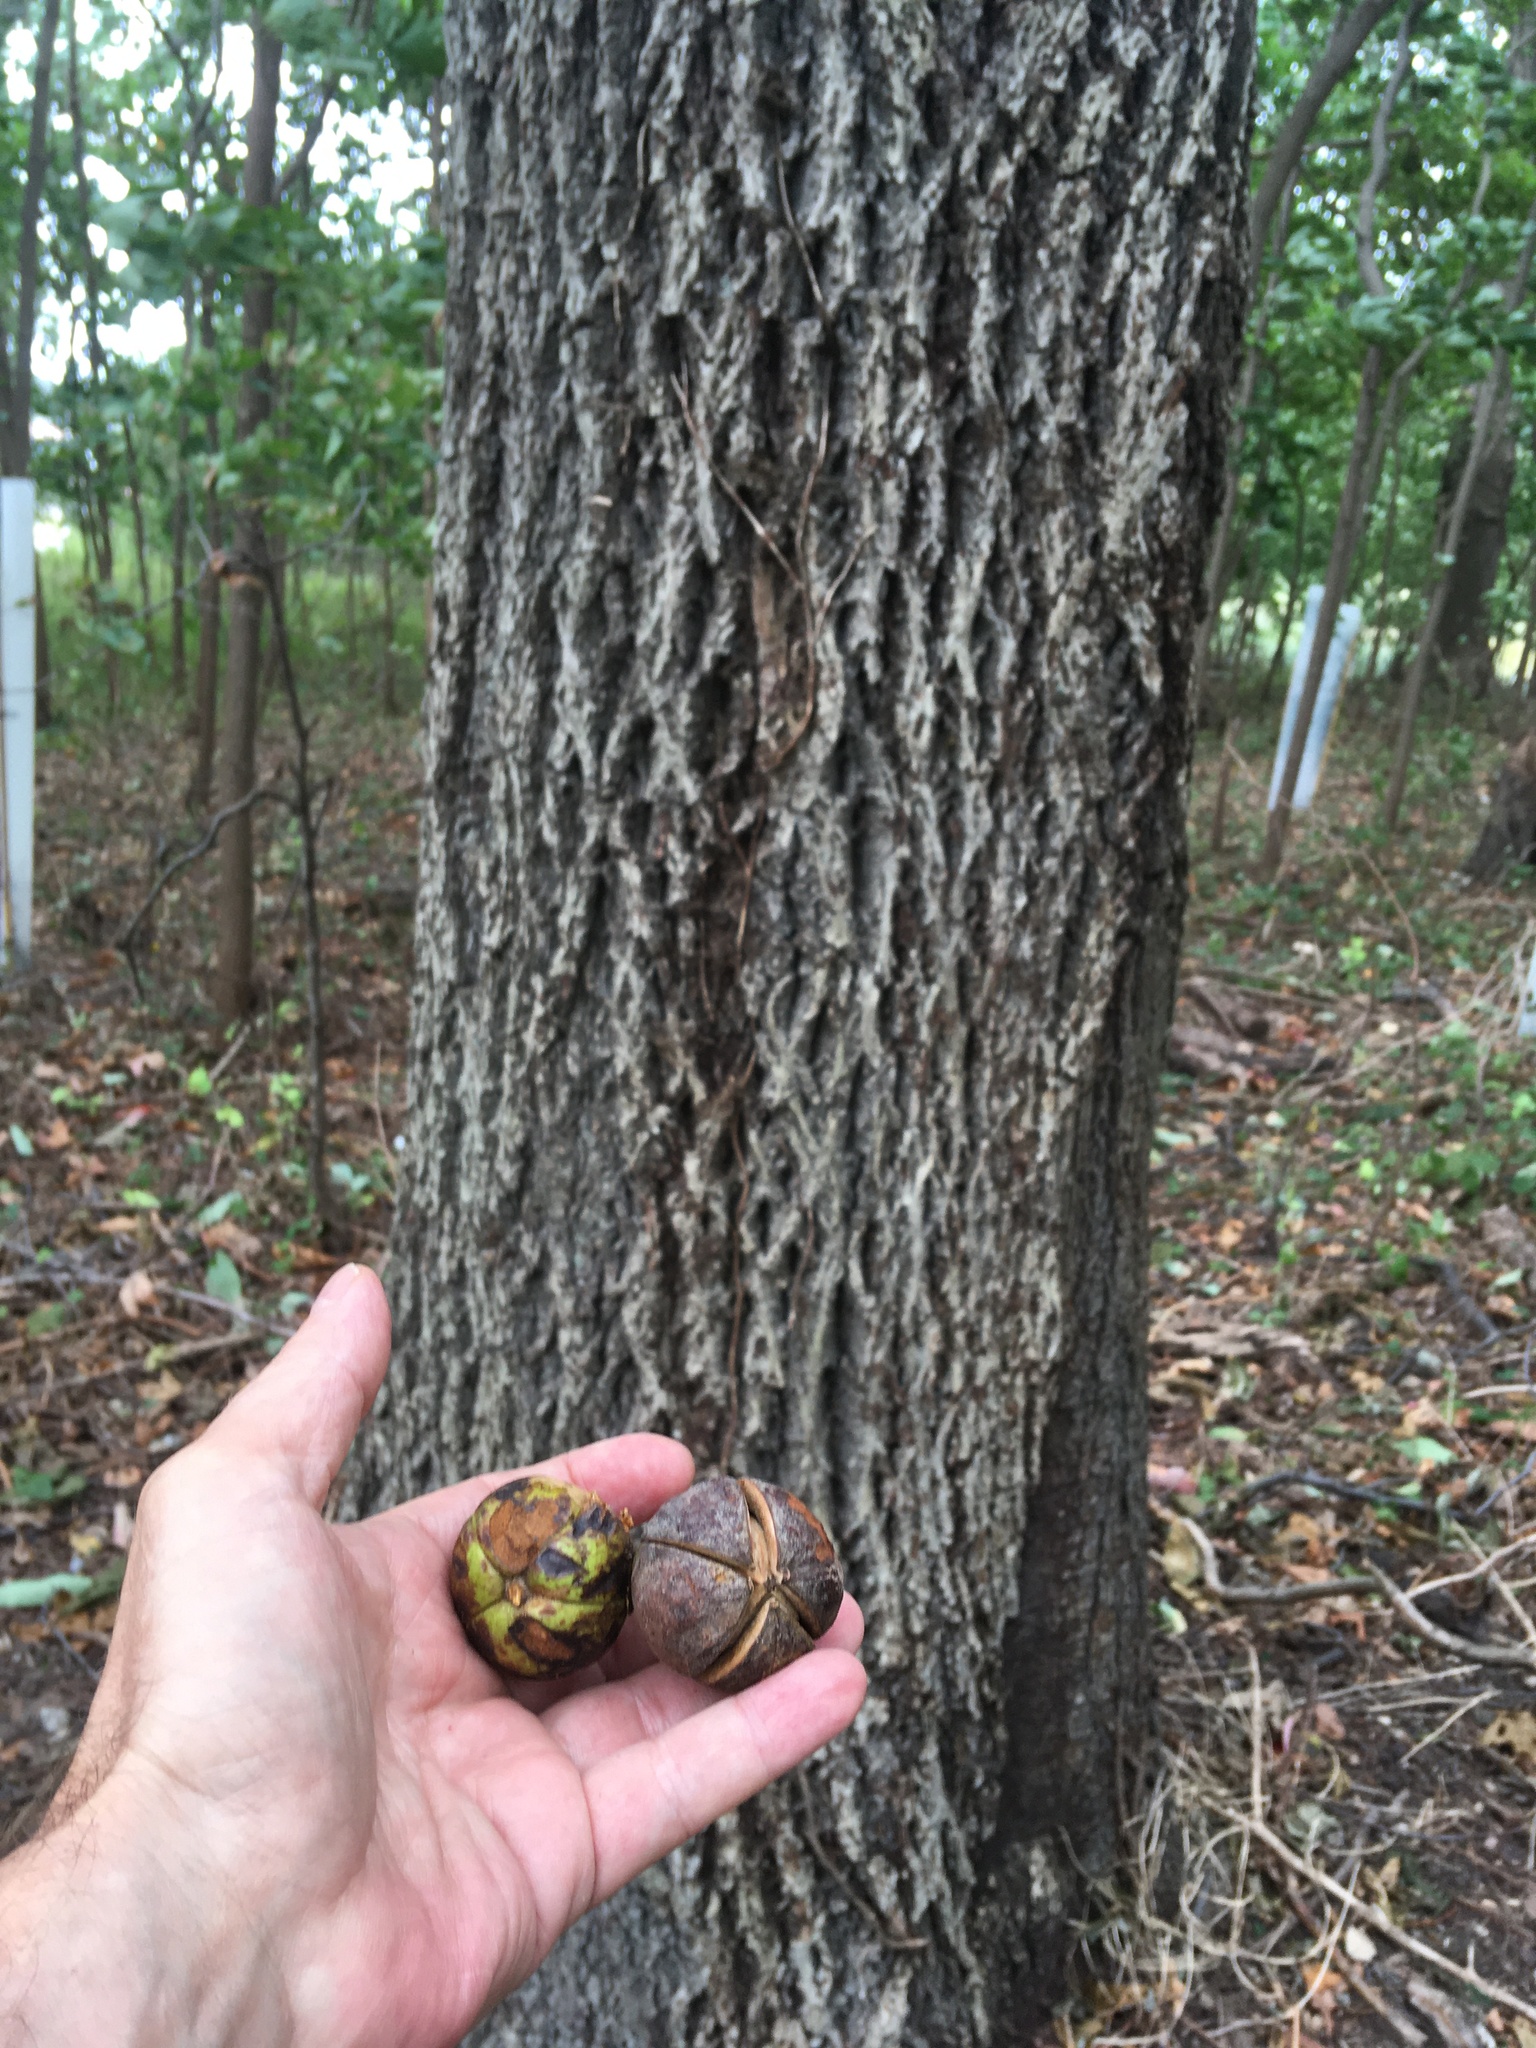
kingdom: Plantae
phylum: Tracheophyta
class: Magnoliopsida
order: Fagales
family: Juglandaceae
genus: Carya
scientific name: Carya alba
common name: Mockernut hickory
